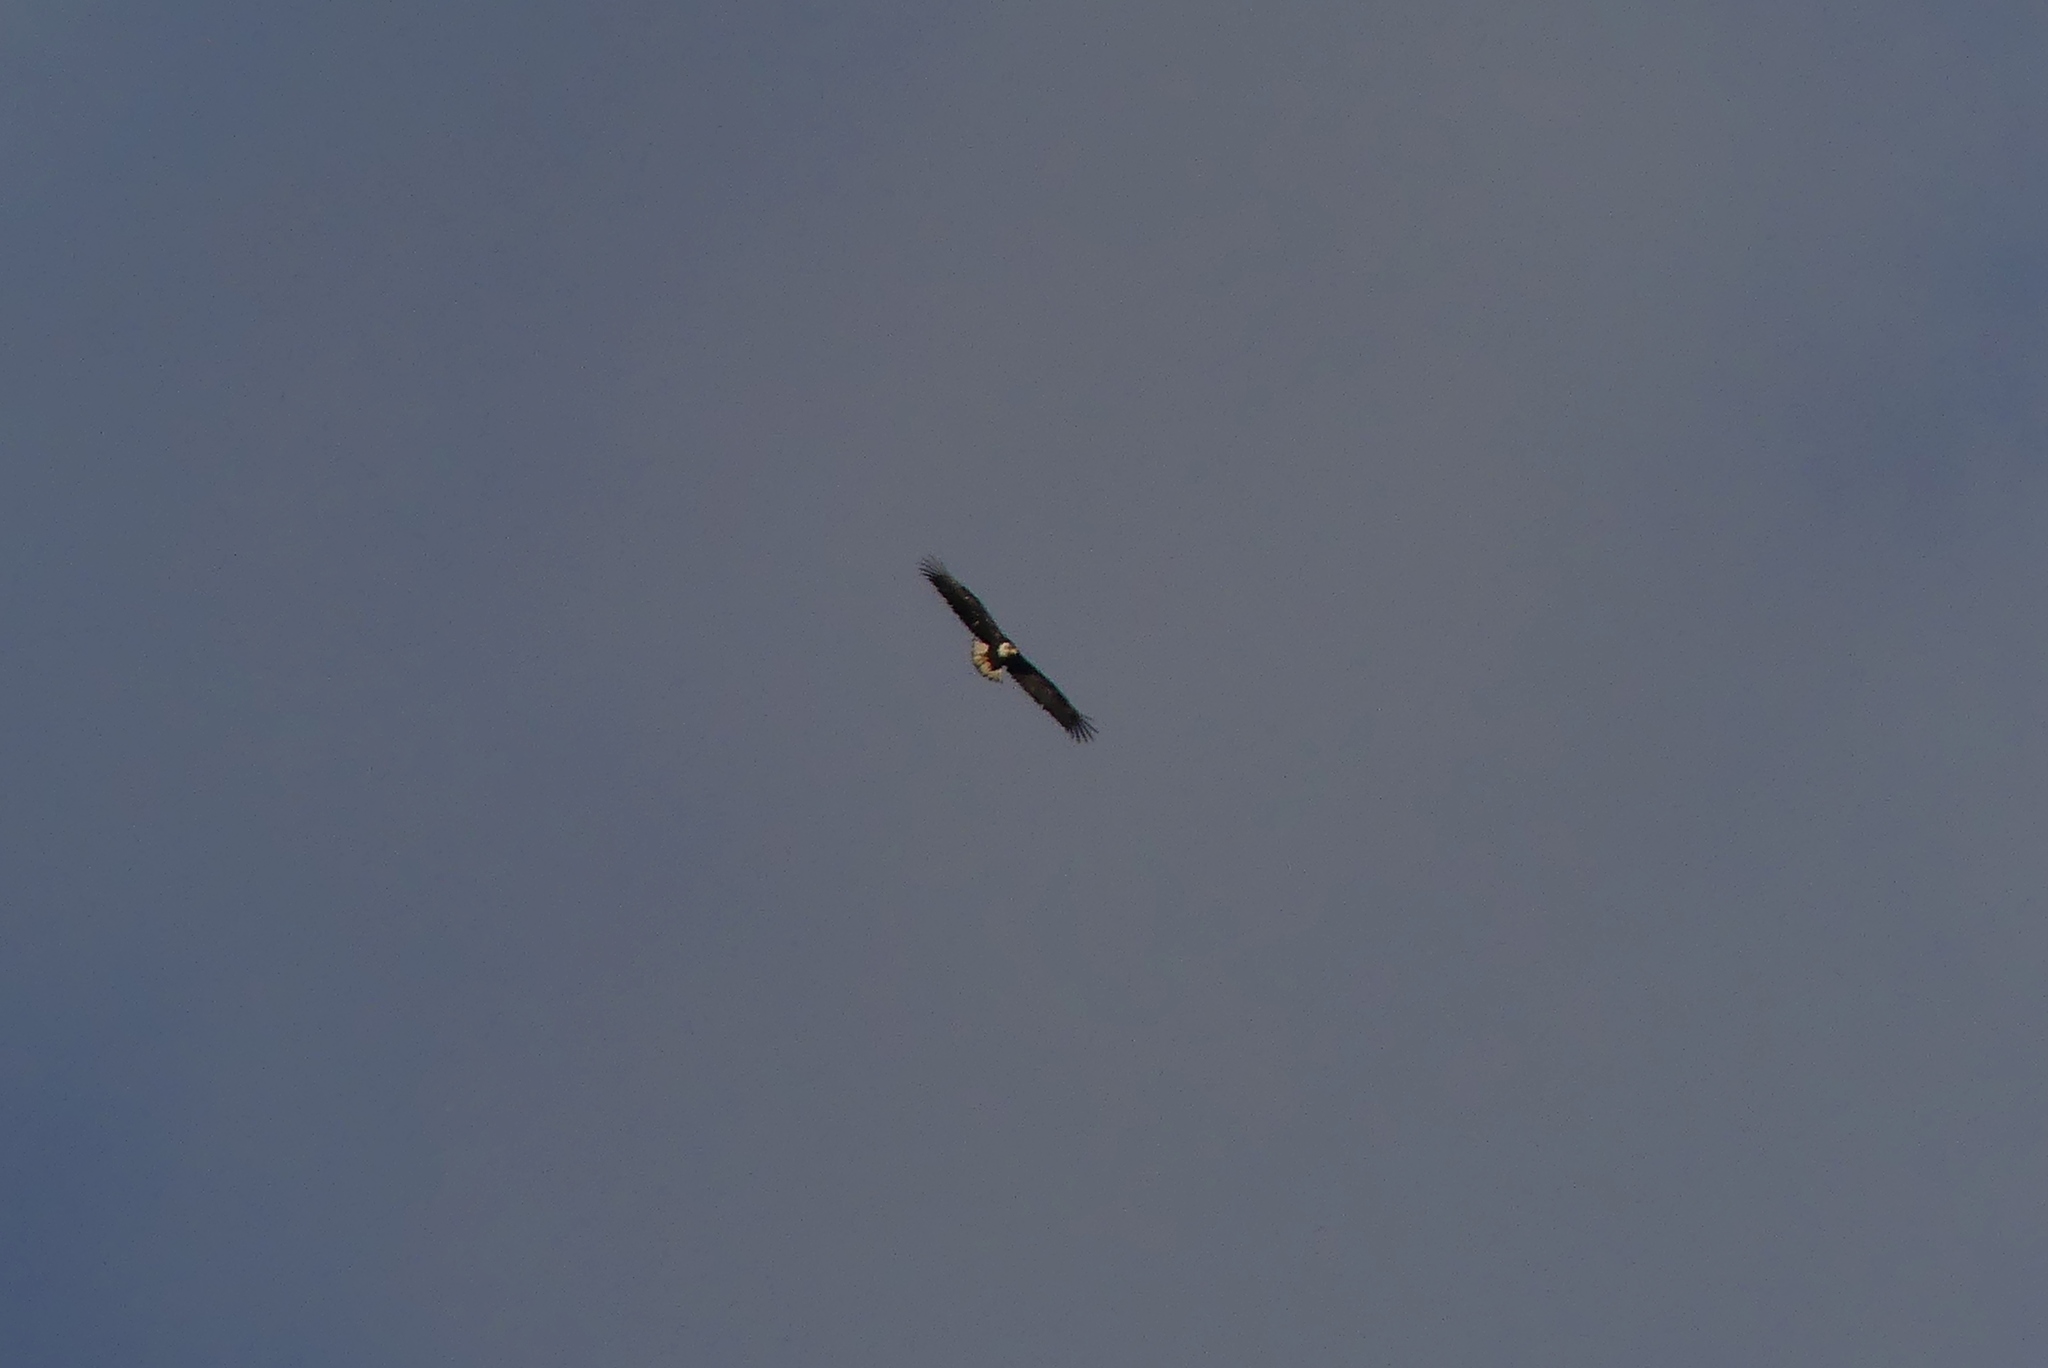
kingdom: Animalia
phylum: Chordata
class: Aves
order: Accipitriformes
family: Accipitridae
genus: Haliaeetus
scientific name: Haliaeetus leucocephalus
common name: Bald eagle
